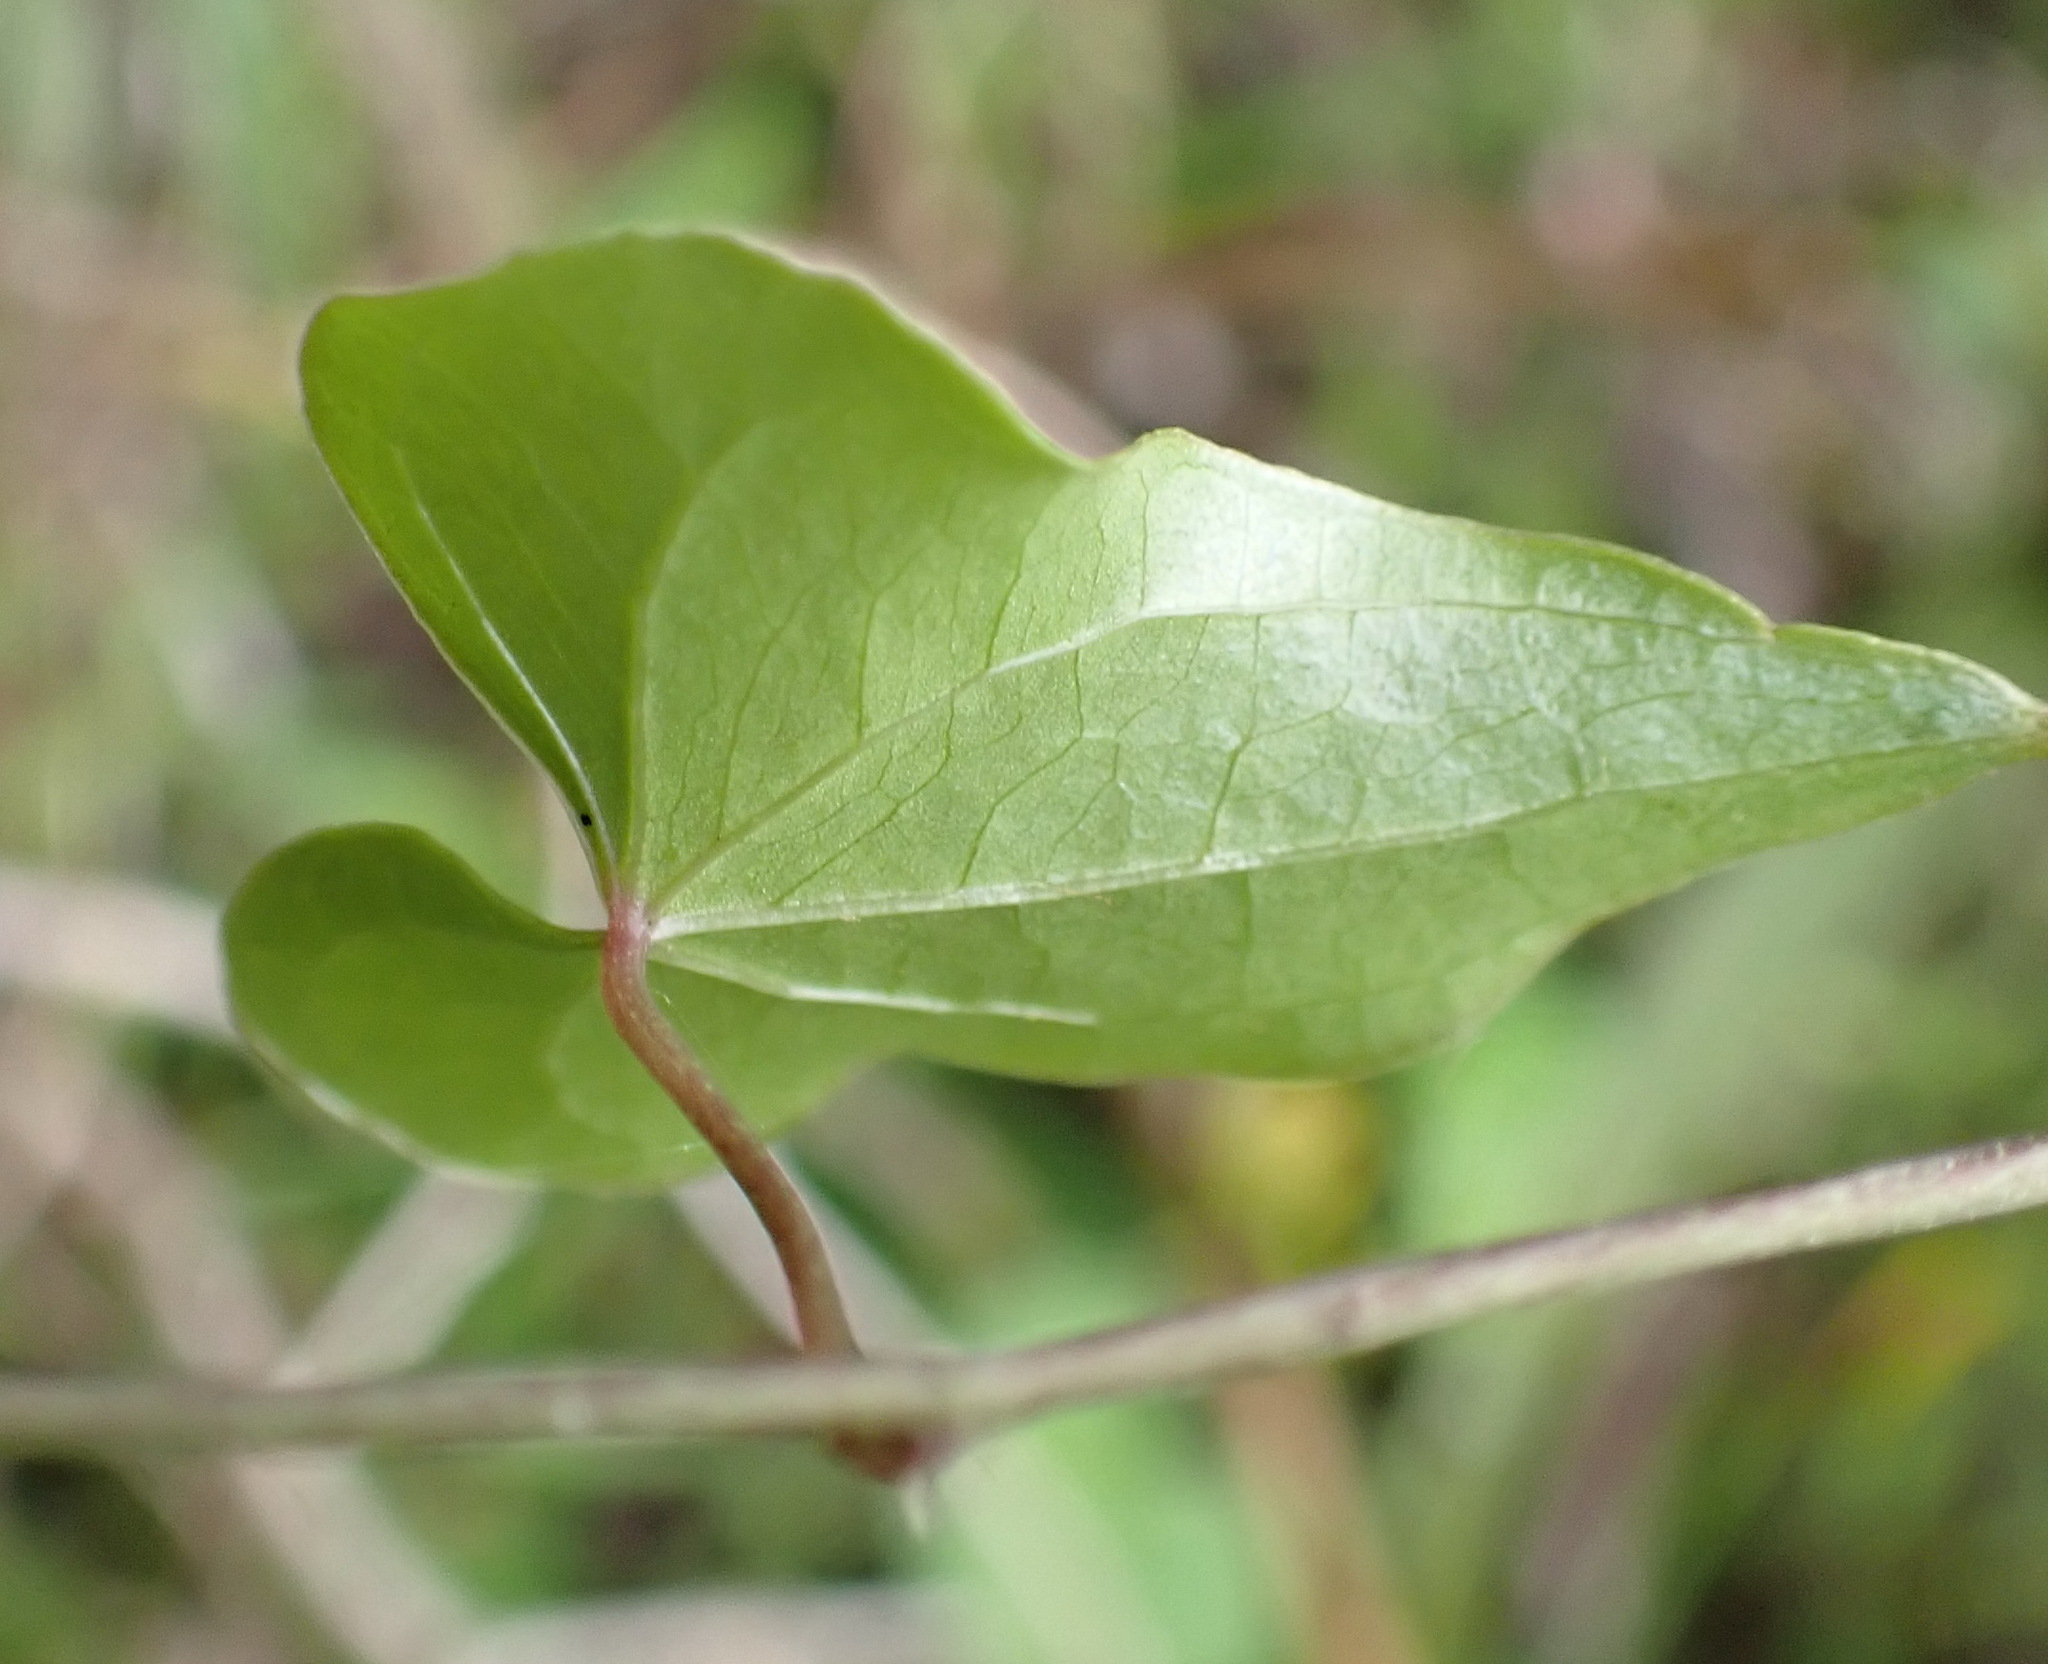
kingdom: Plantae
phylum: Tracheophyta
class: Liliopsida
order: Dioscoreales
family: Dioscoreaceae
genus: Dioscorea
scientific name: Dioscorea mundii
